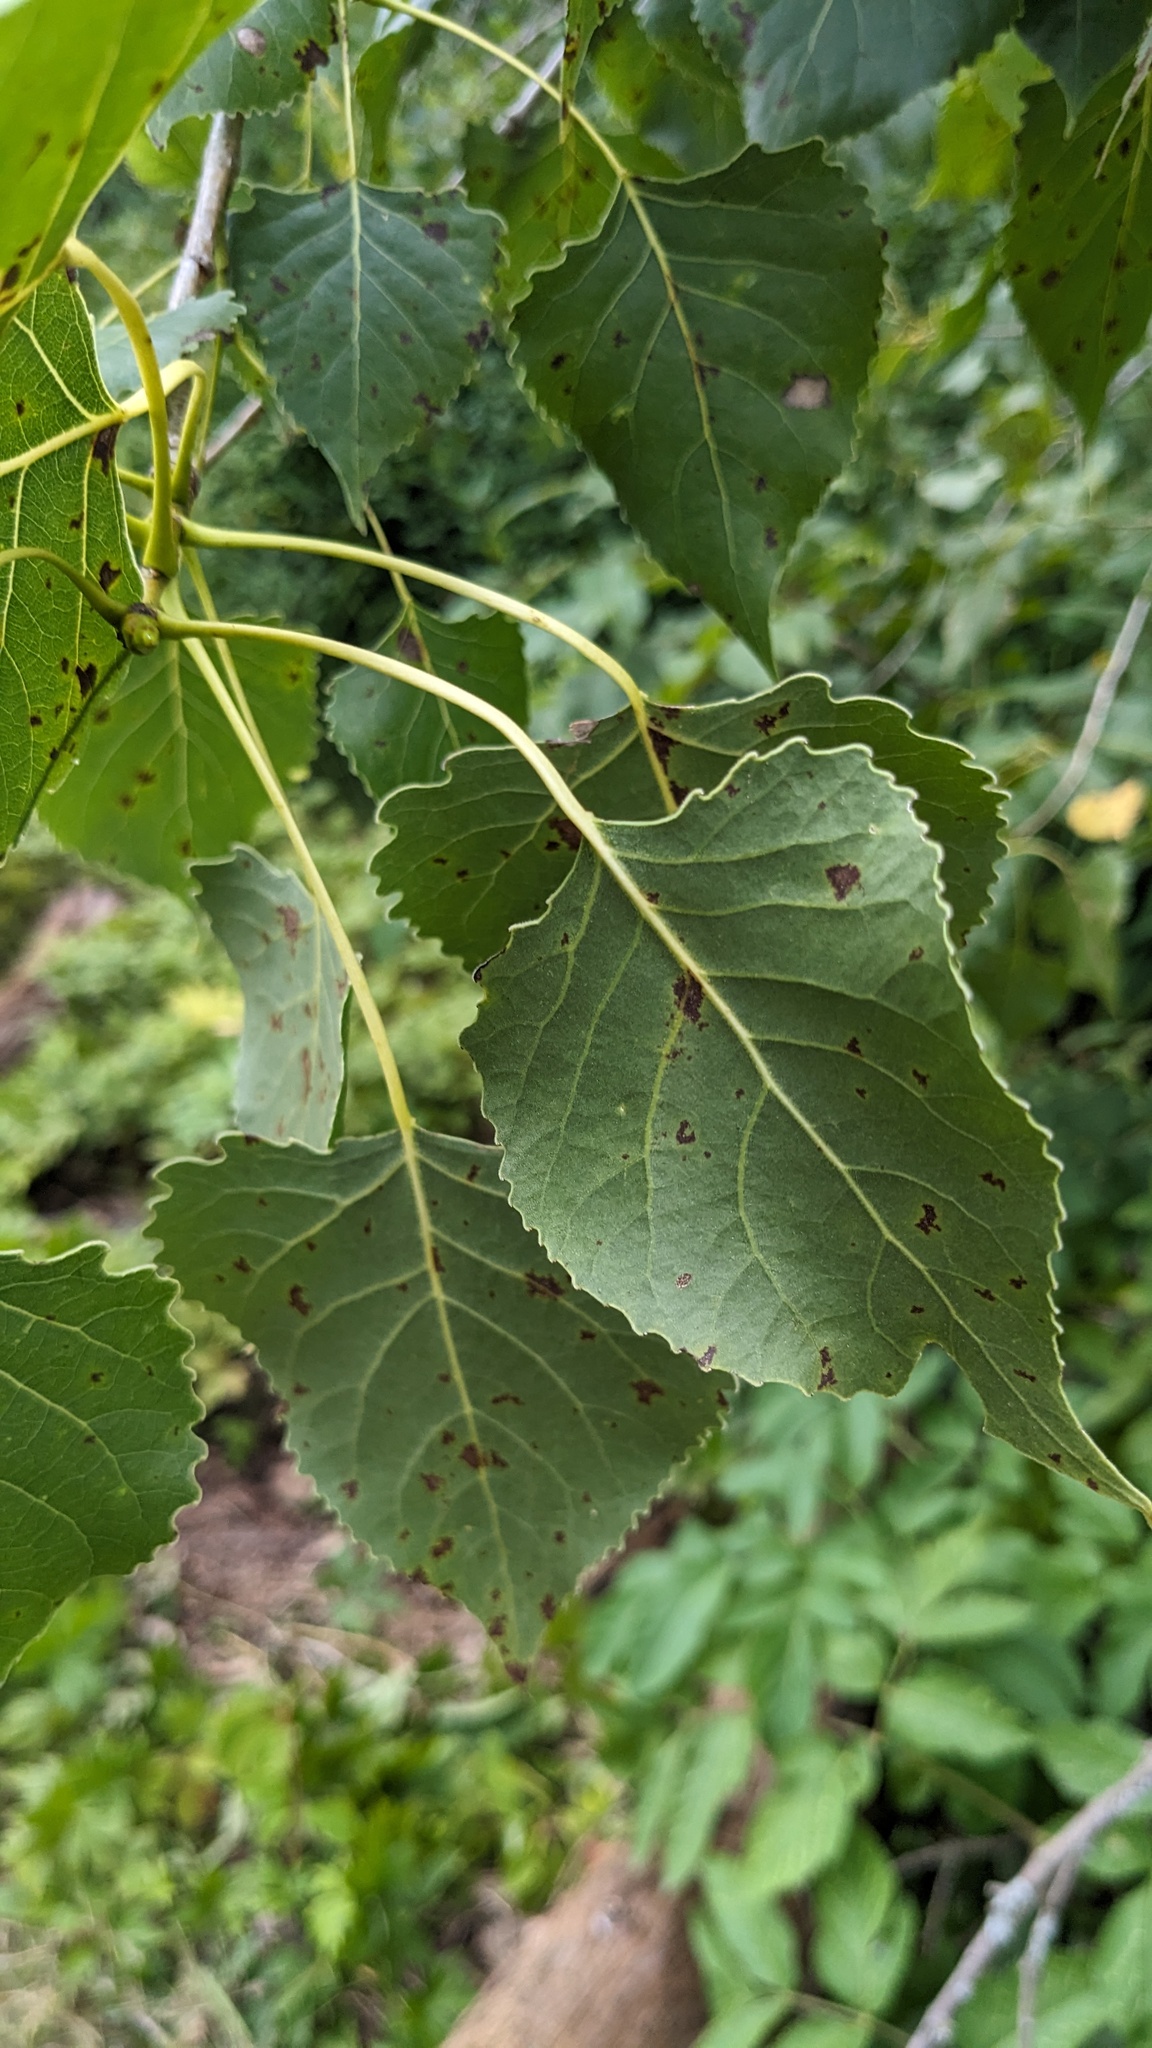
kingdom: Plantae
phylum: Tracheophyta
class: Magnoliopsida
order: Malpighiales
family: Salicaceae
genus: Populus
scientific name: Populus deltoides
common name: Eastern cottonwood
